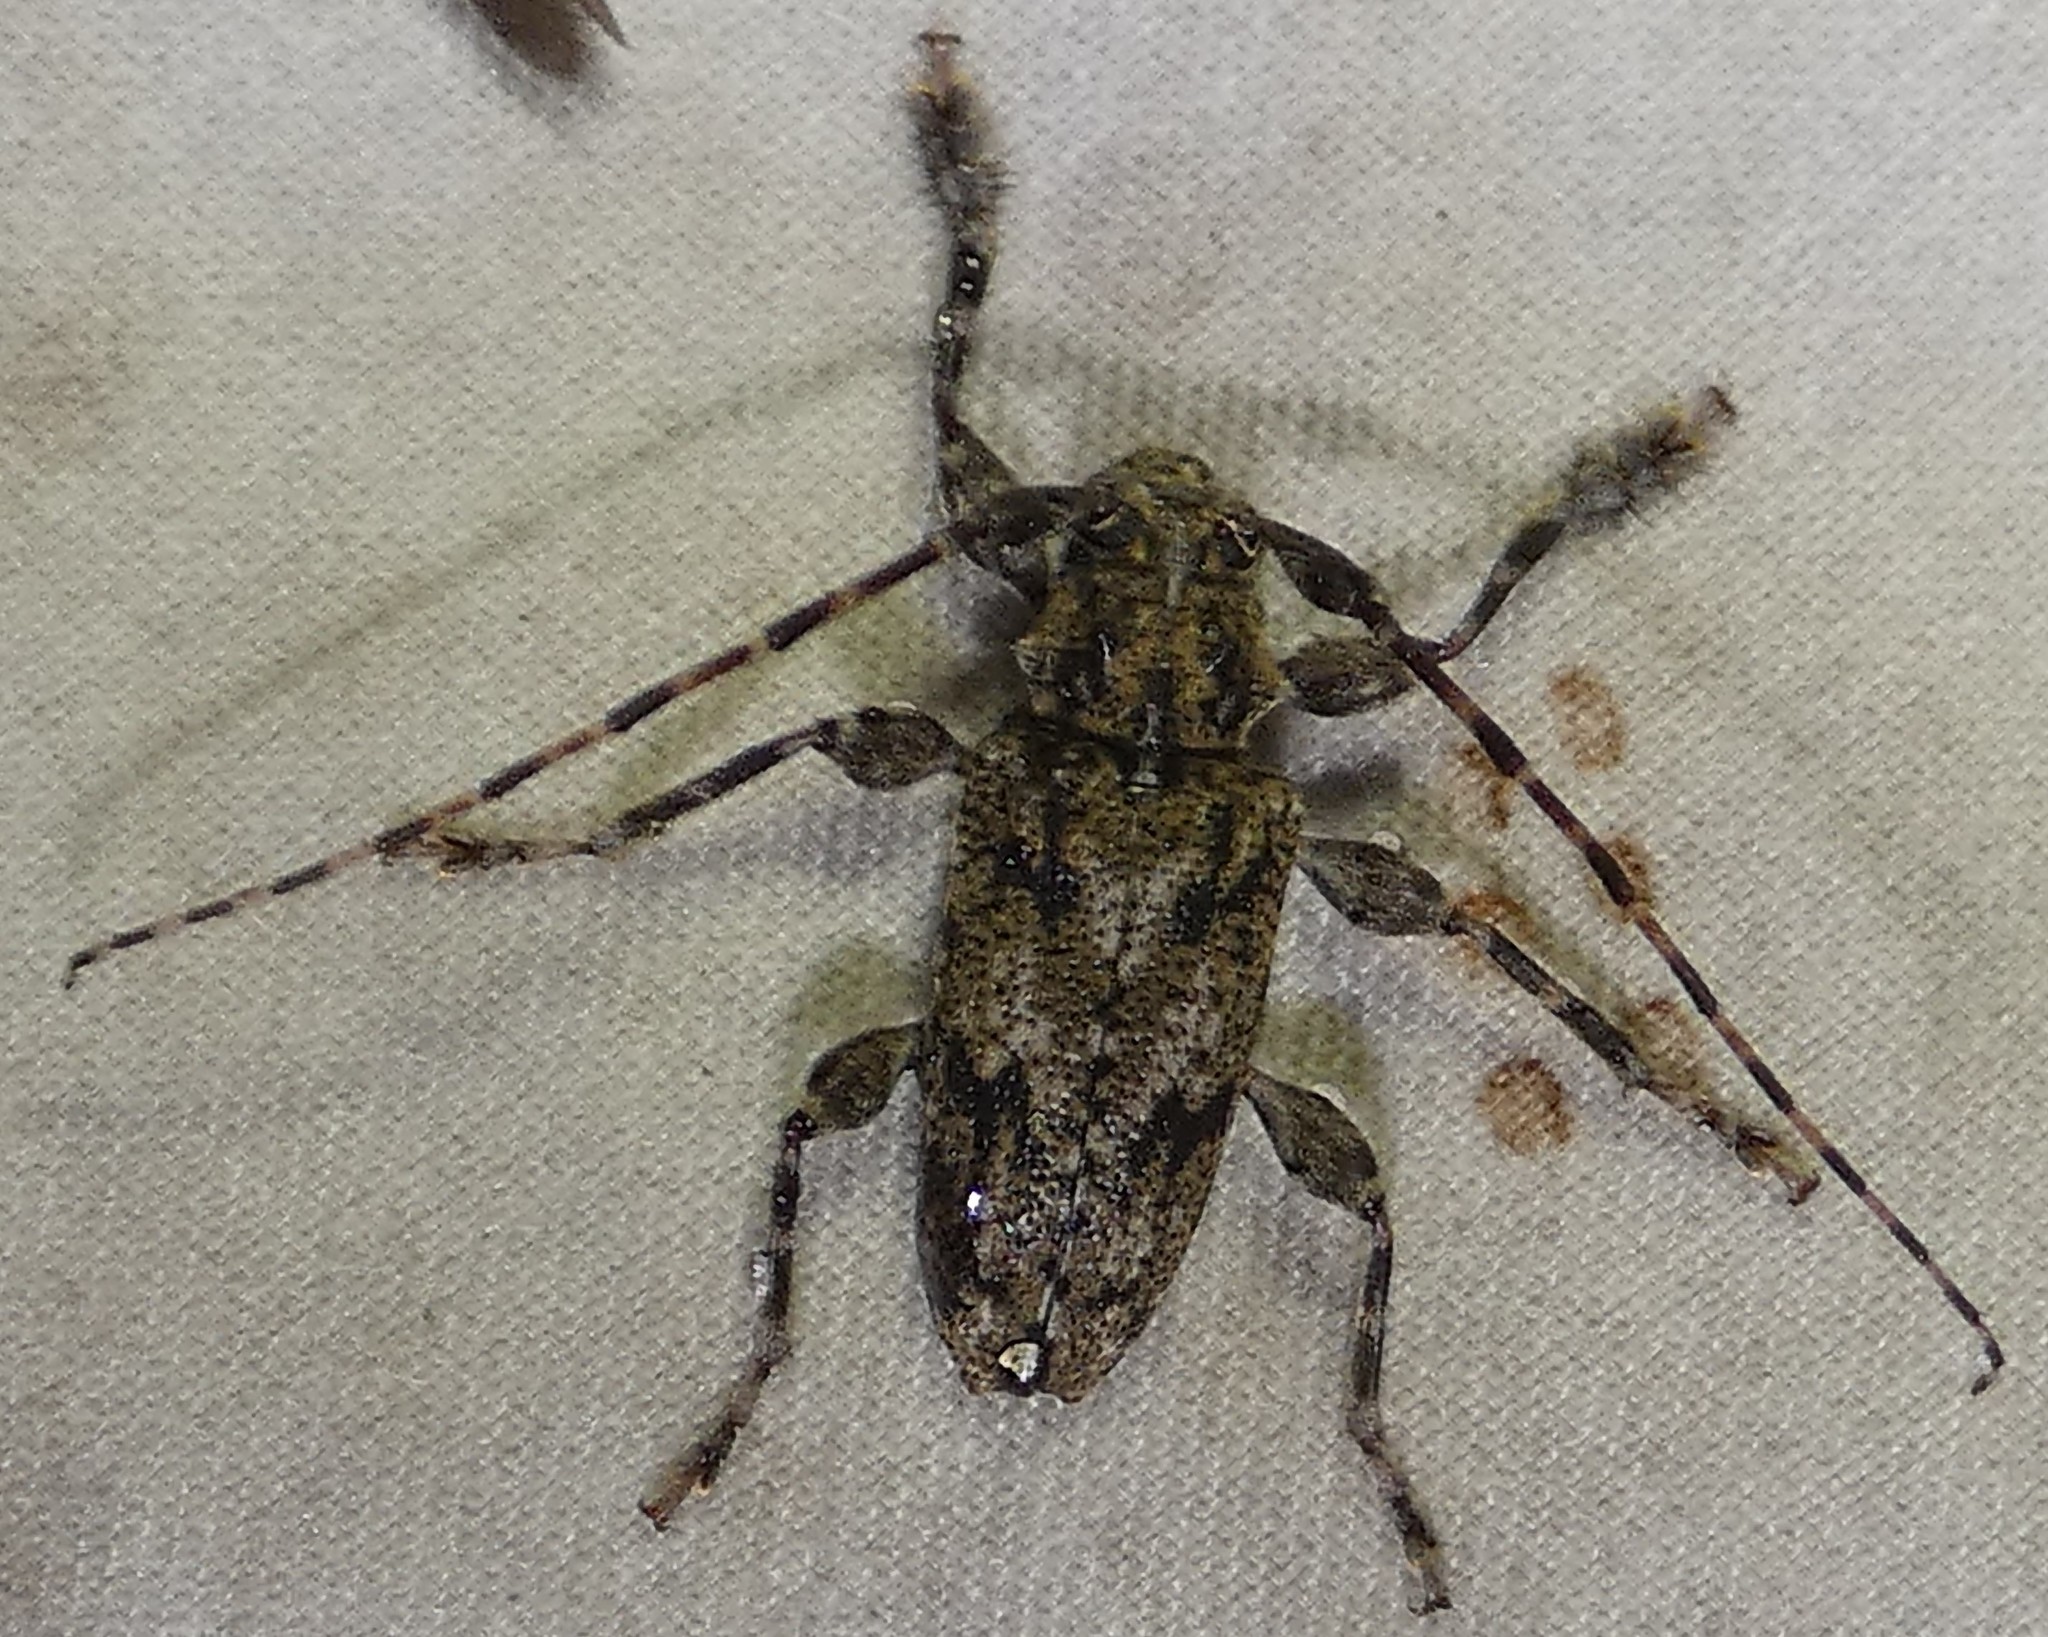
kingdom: Animalia
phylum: Arthropoda
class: Insecta
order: Coleoptera
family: Cerambycidae
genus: Aegomorphus
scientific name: Aegomorphus modestus
